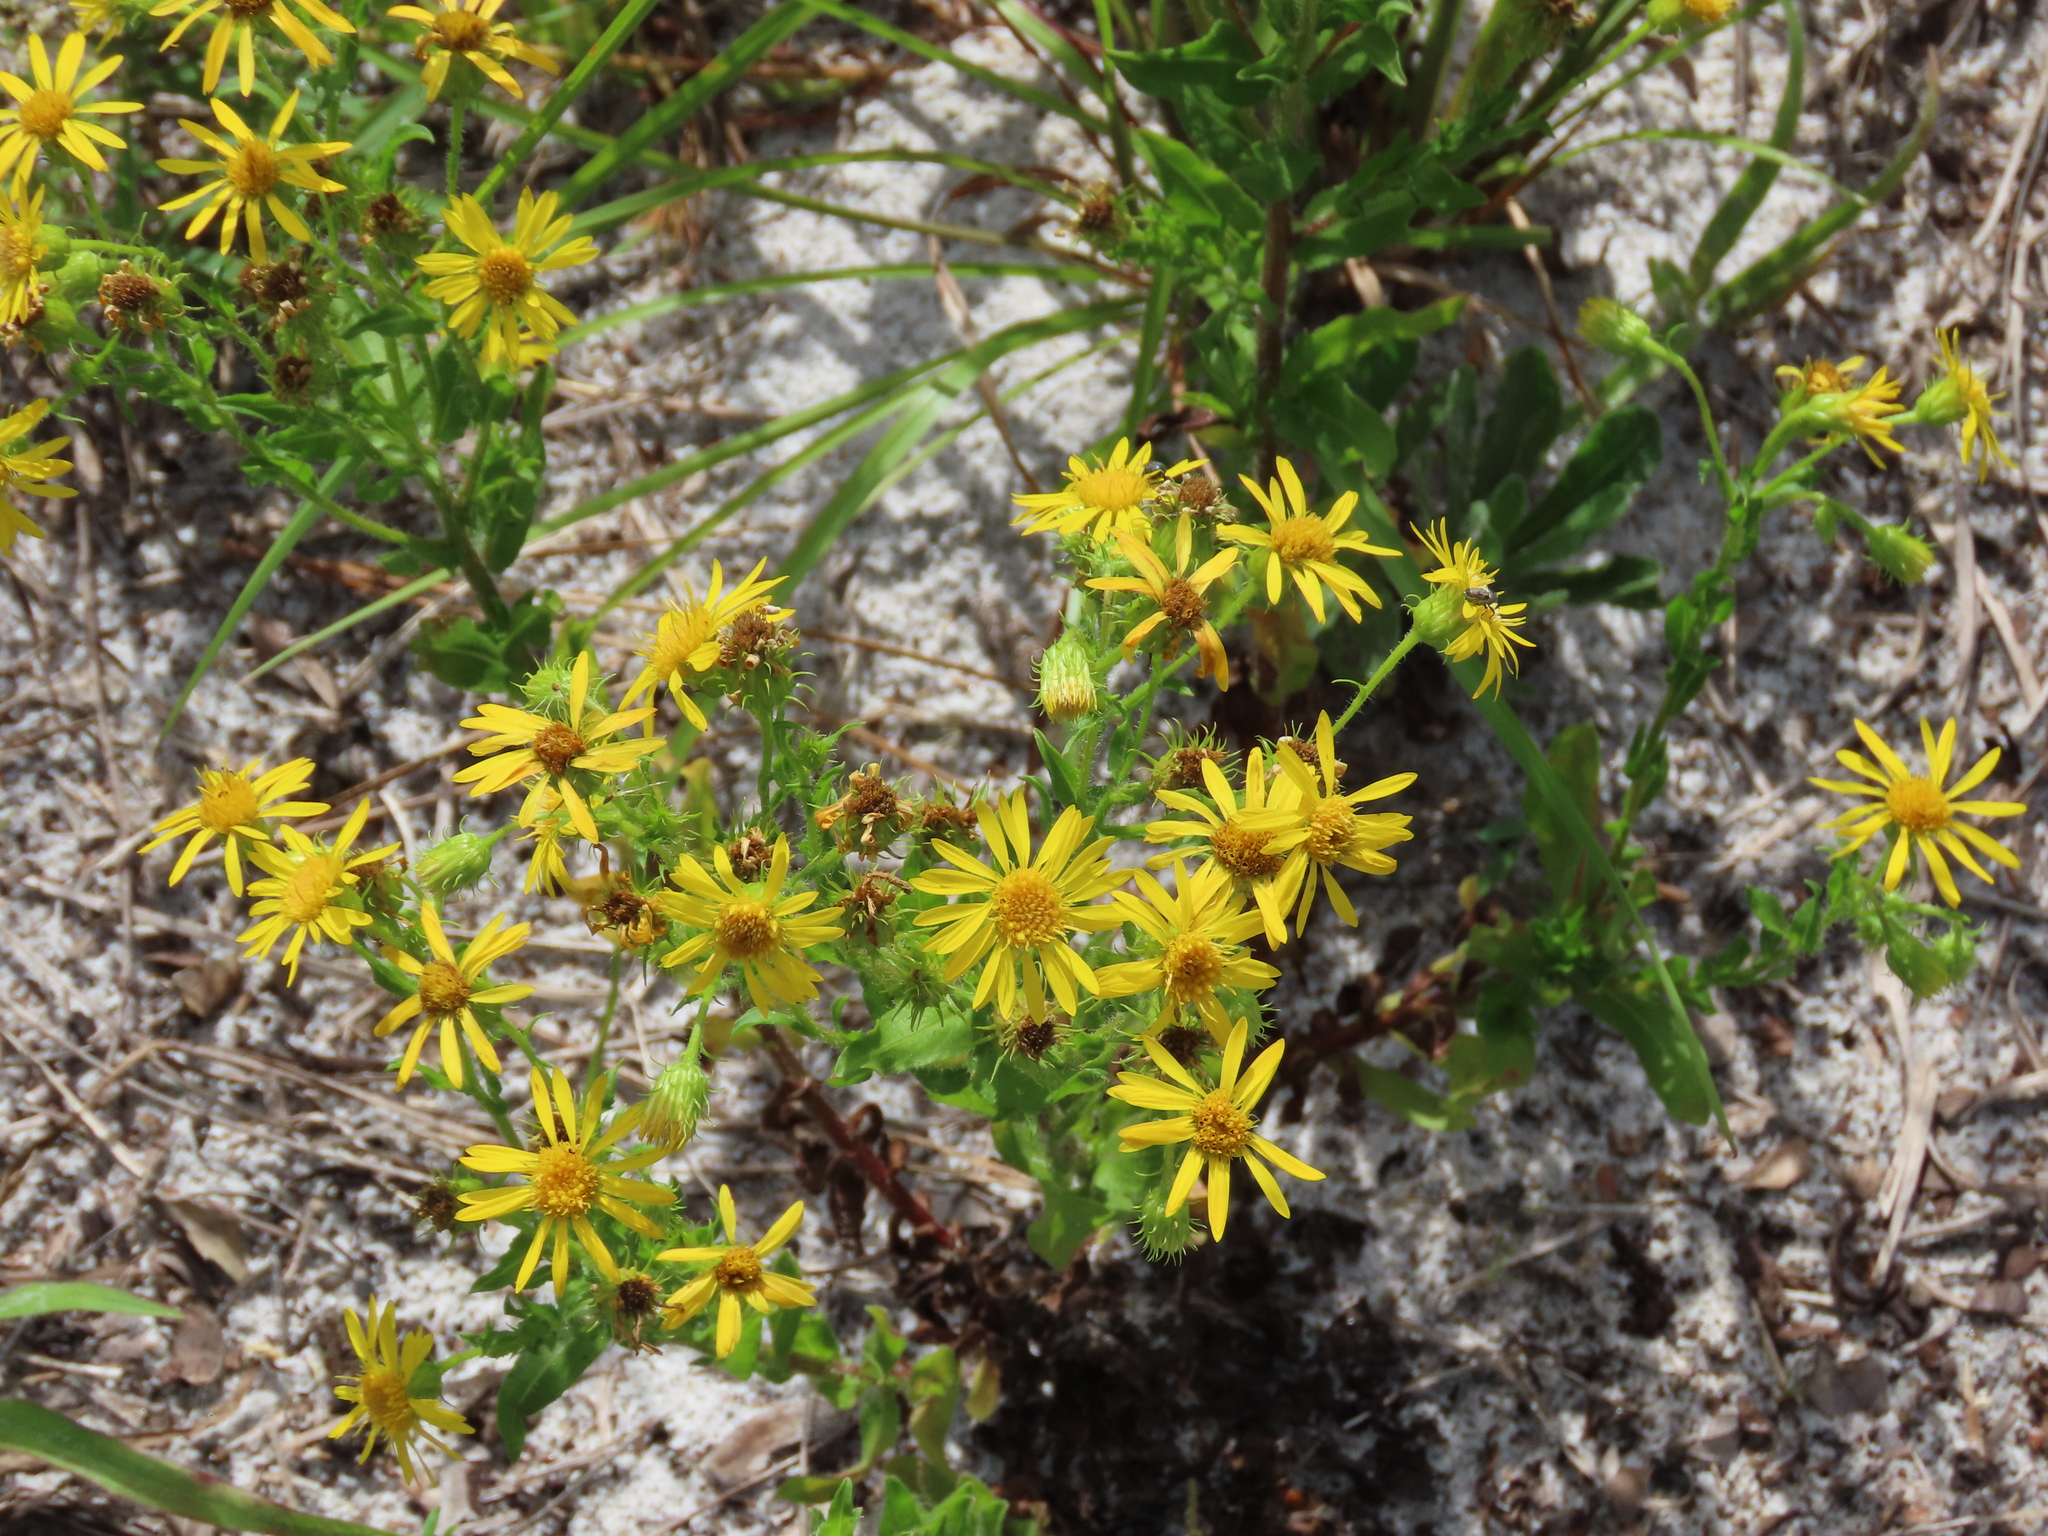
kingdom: Plantae
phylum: Tracheophyta
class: Magnoliopsida
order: Asterales
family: Asteraceae
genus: Chrysopsis
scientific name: Chrysopsis subulata
